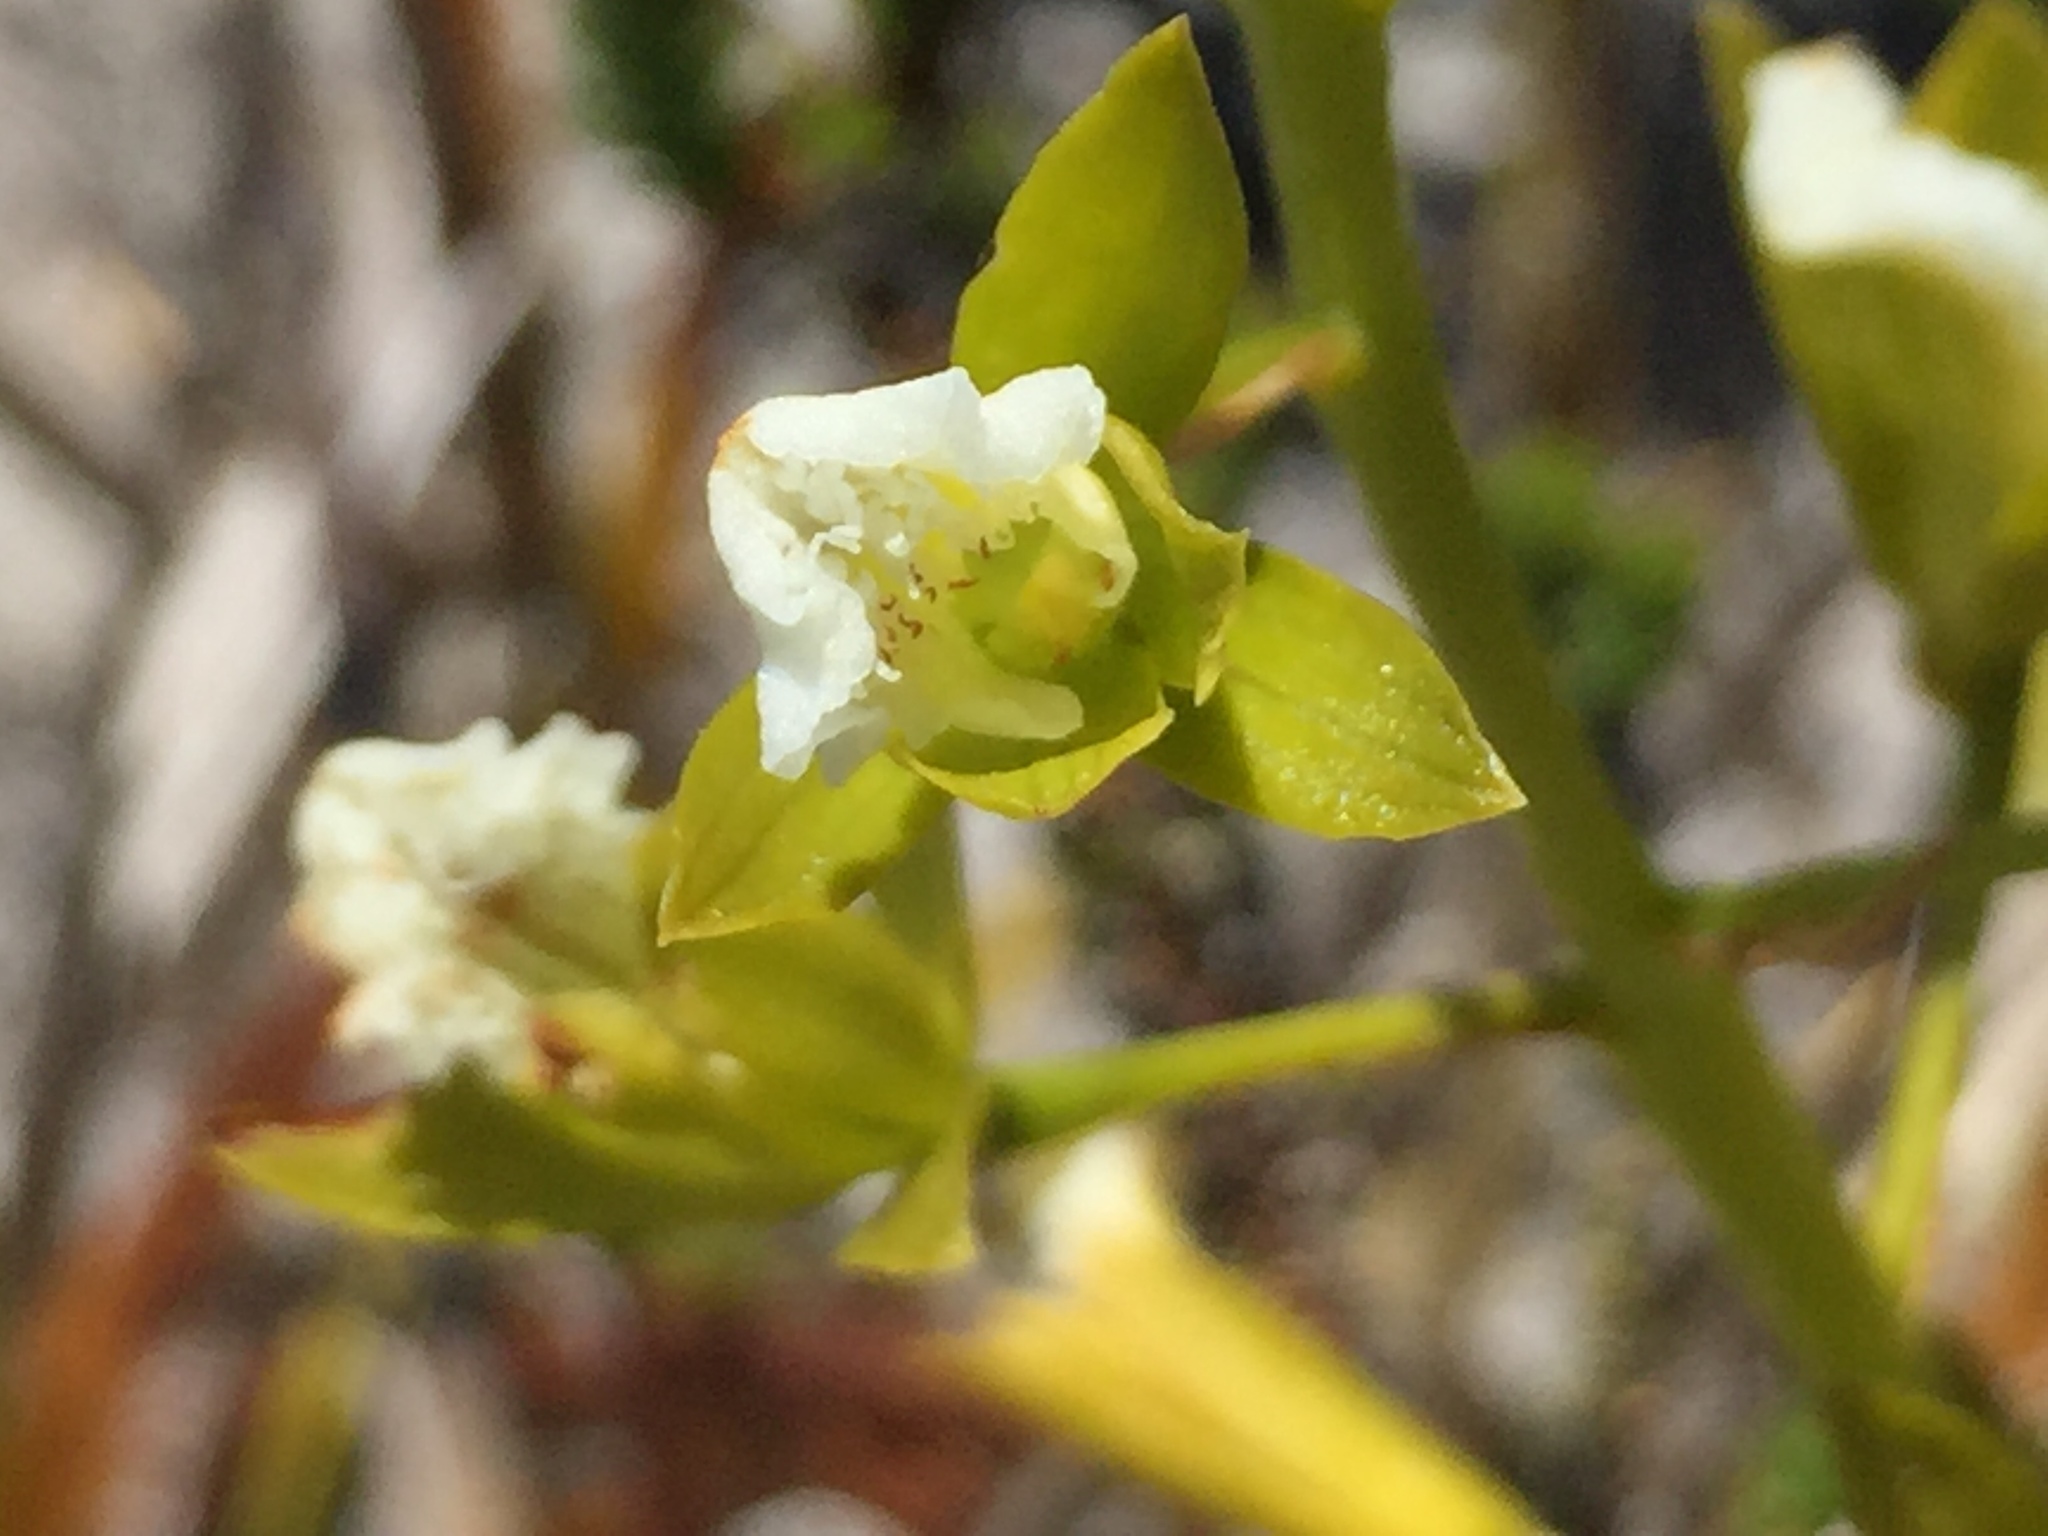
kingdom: Plantae
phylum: Tracheophyta
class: Liliopsida
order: Asparagales
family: Orchidaceae
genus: Eulophia
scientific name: Eulophia lamellata
